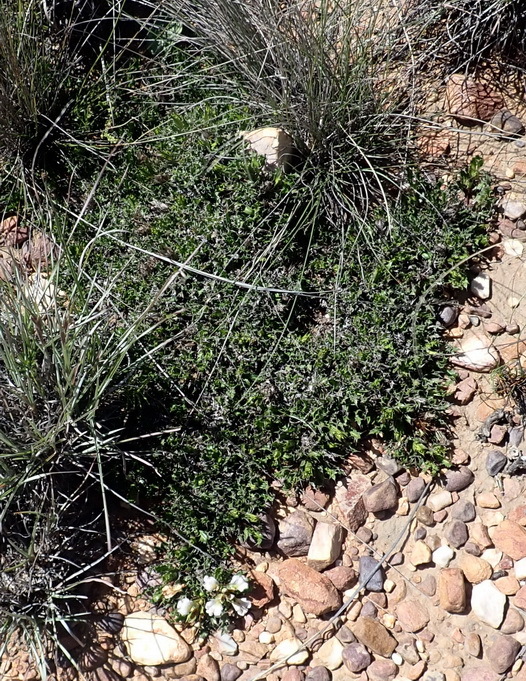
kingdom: Plantae
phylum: Tracheophyta
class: Magnoliopsida
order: Lamiales
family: Acanthaceae
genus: Blepharis
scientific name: Blepharis capensis
